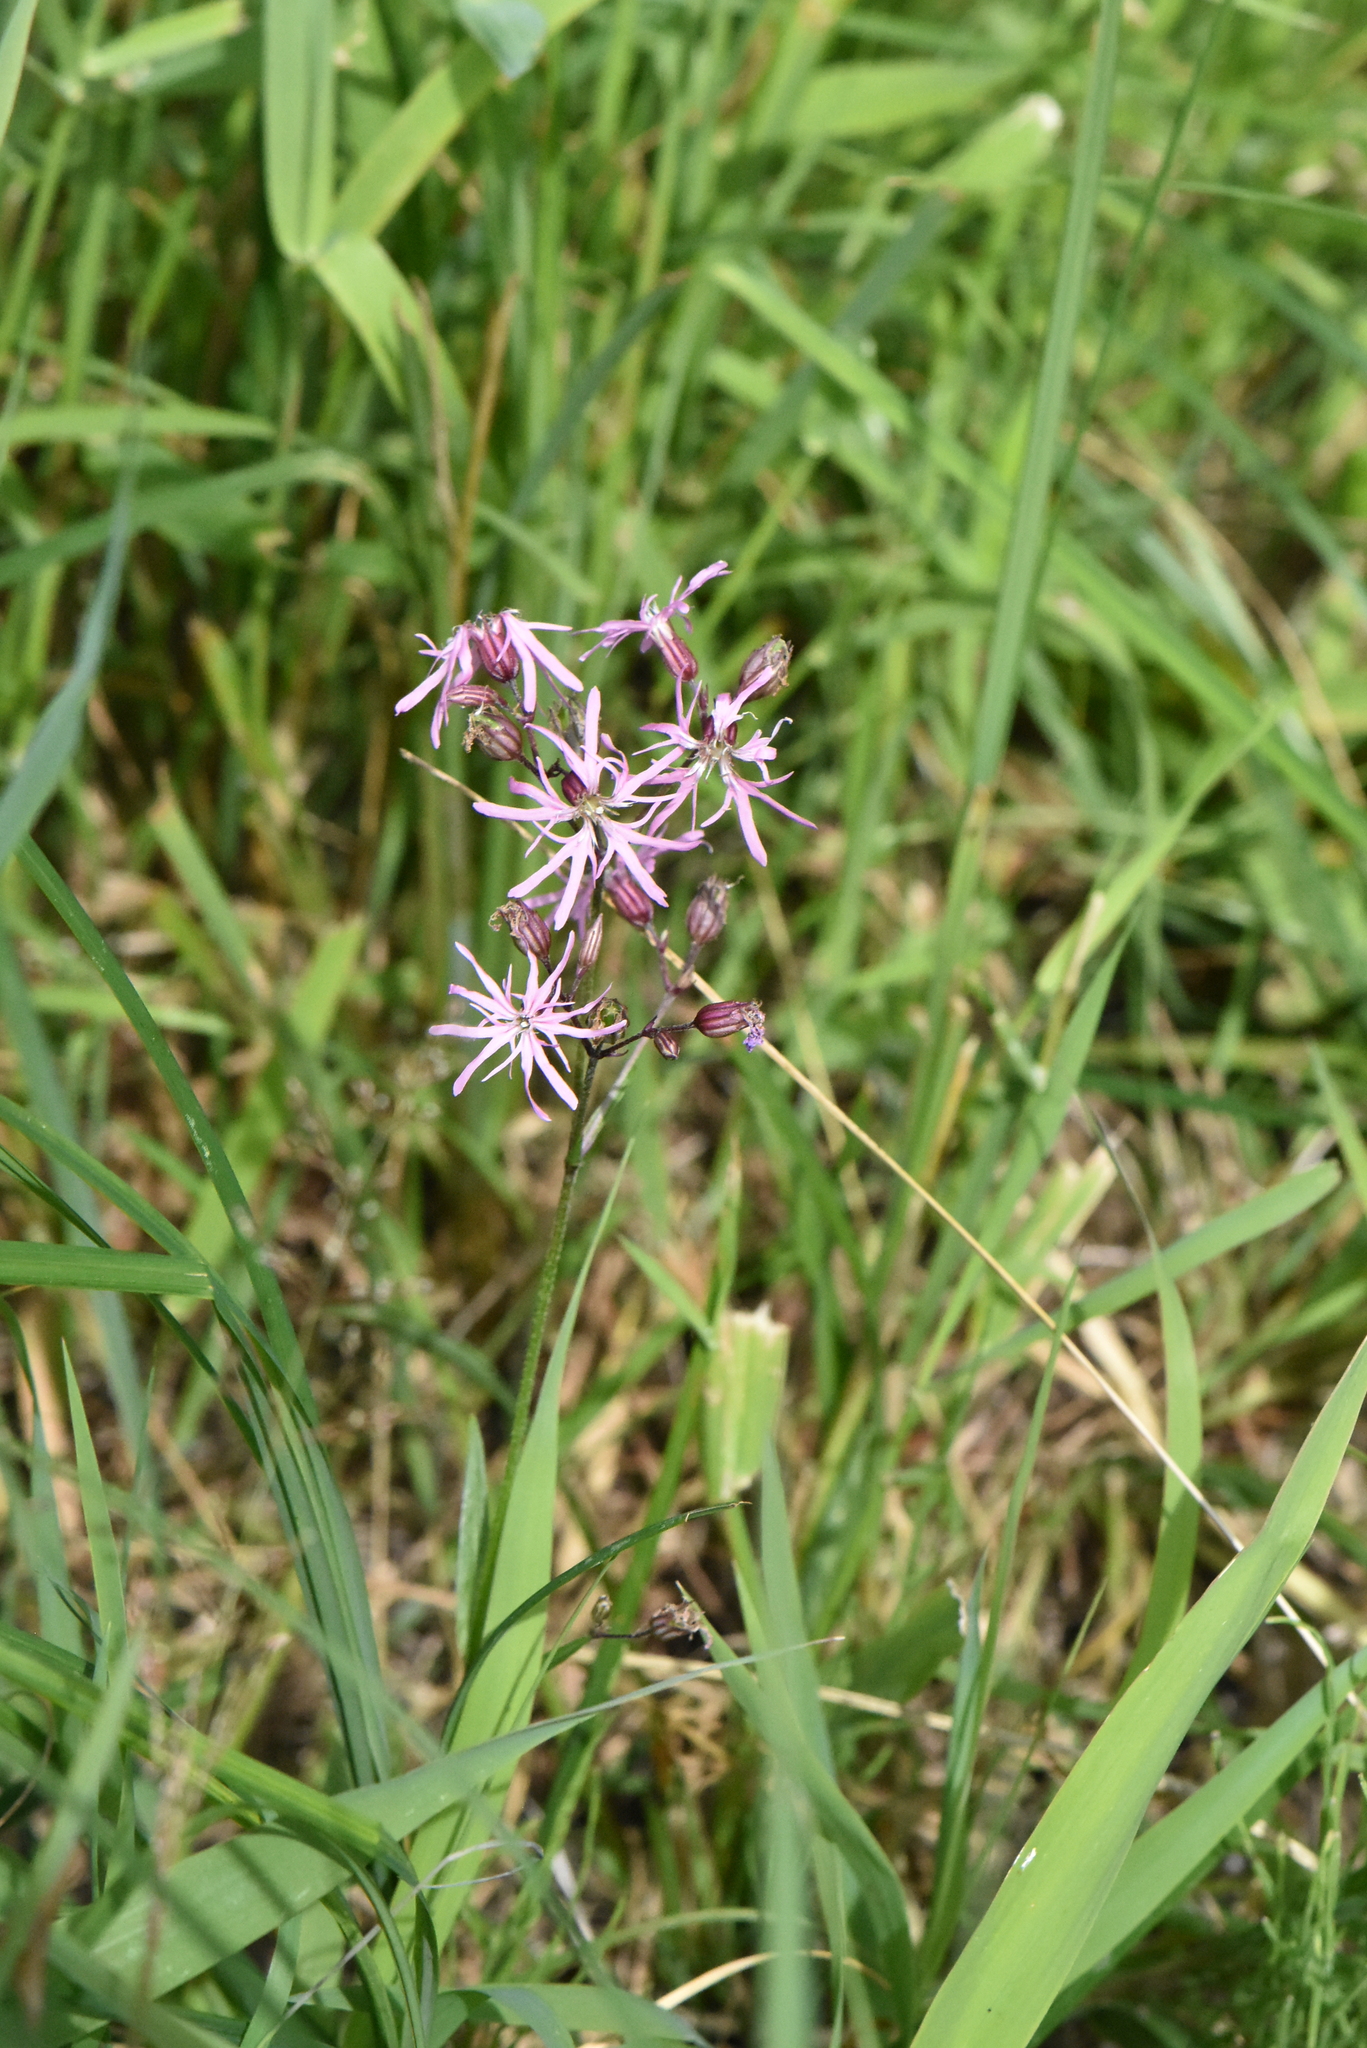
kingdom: Plantae
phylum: Tracheophyta
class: Magnoliopsida
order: Caryophyllales
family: Caryophyllaceae
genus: Silene
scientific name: Silene flos-cuculi
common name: Ragged-robin
